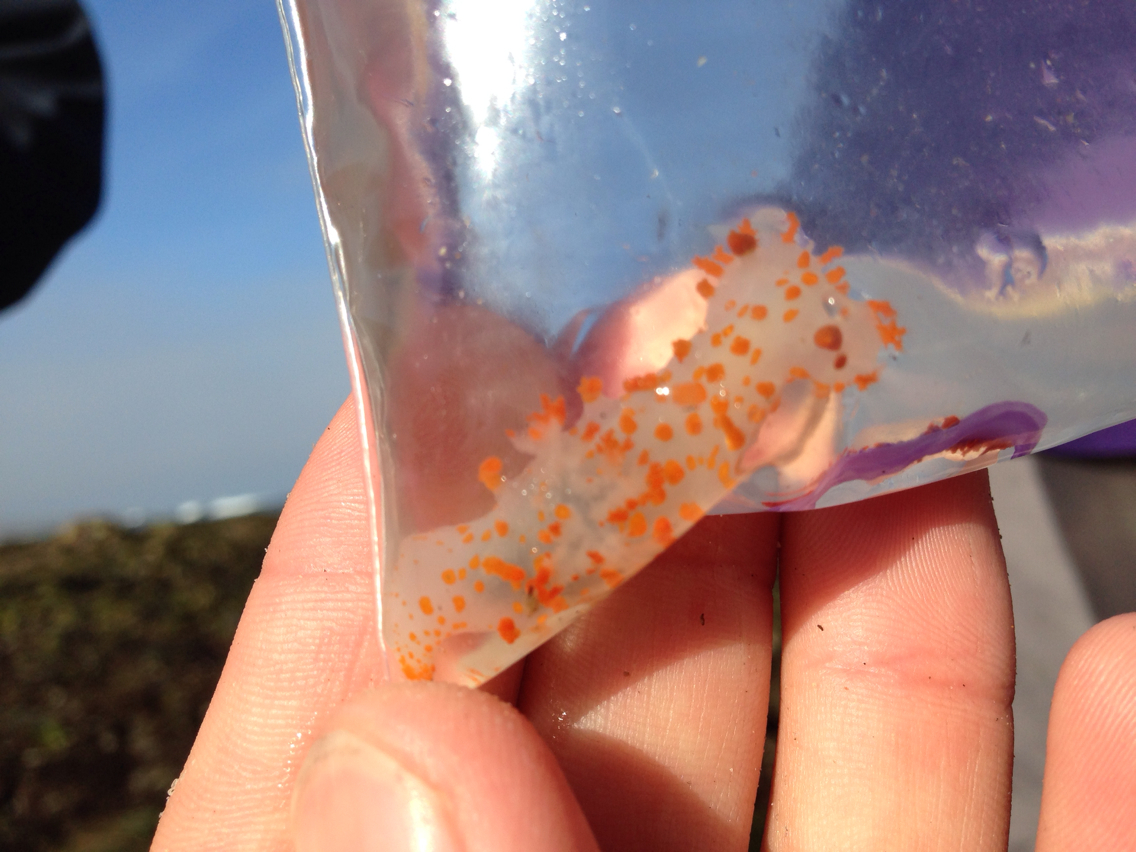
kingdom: Animalia
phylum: Mollusca
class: Gastropoda
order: Nudibranchia
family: Polyceridae
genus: Triopha
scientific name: Triopha catalinae
